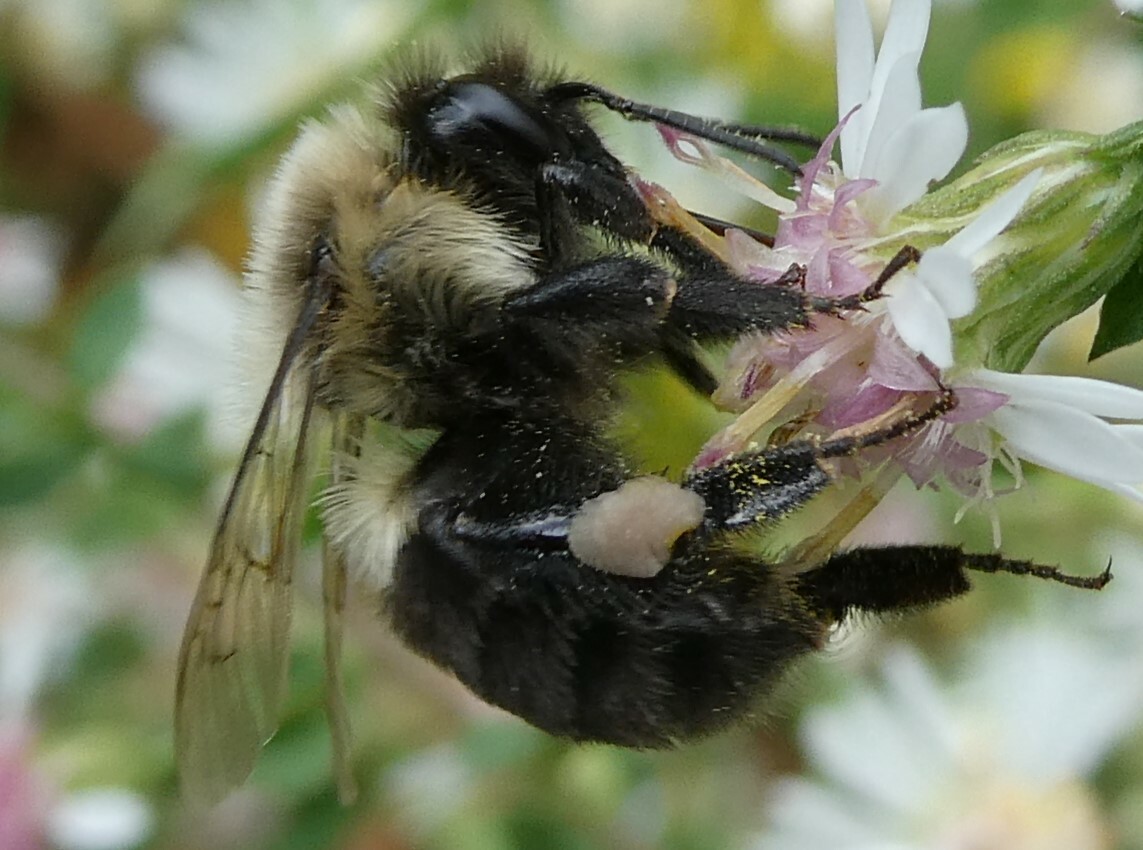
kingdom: Animalia
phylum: Arthropoda
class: Insecta
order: Hymenoptera
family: Apidae
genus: Bombus
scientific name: Bombus impatiens
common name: Common eastern bumble bee
